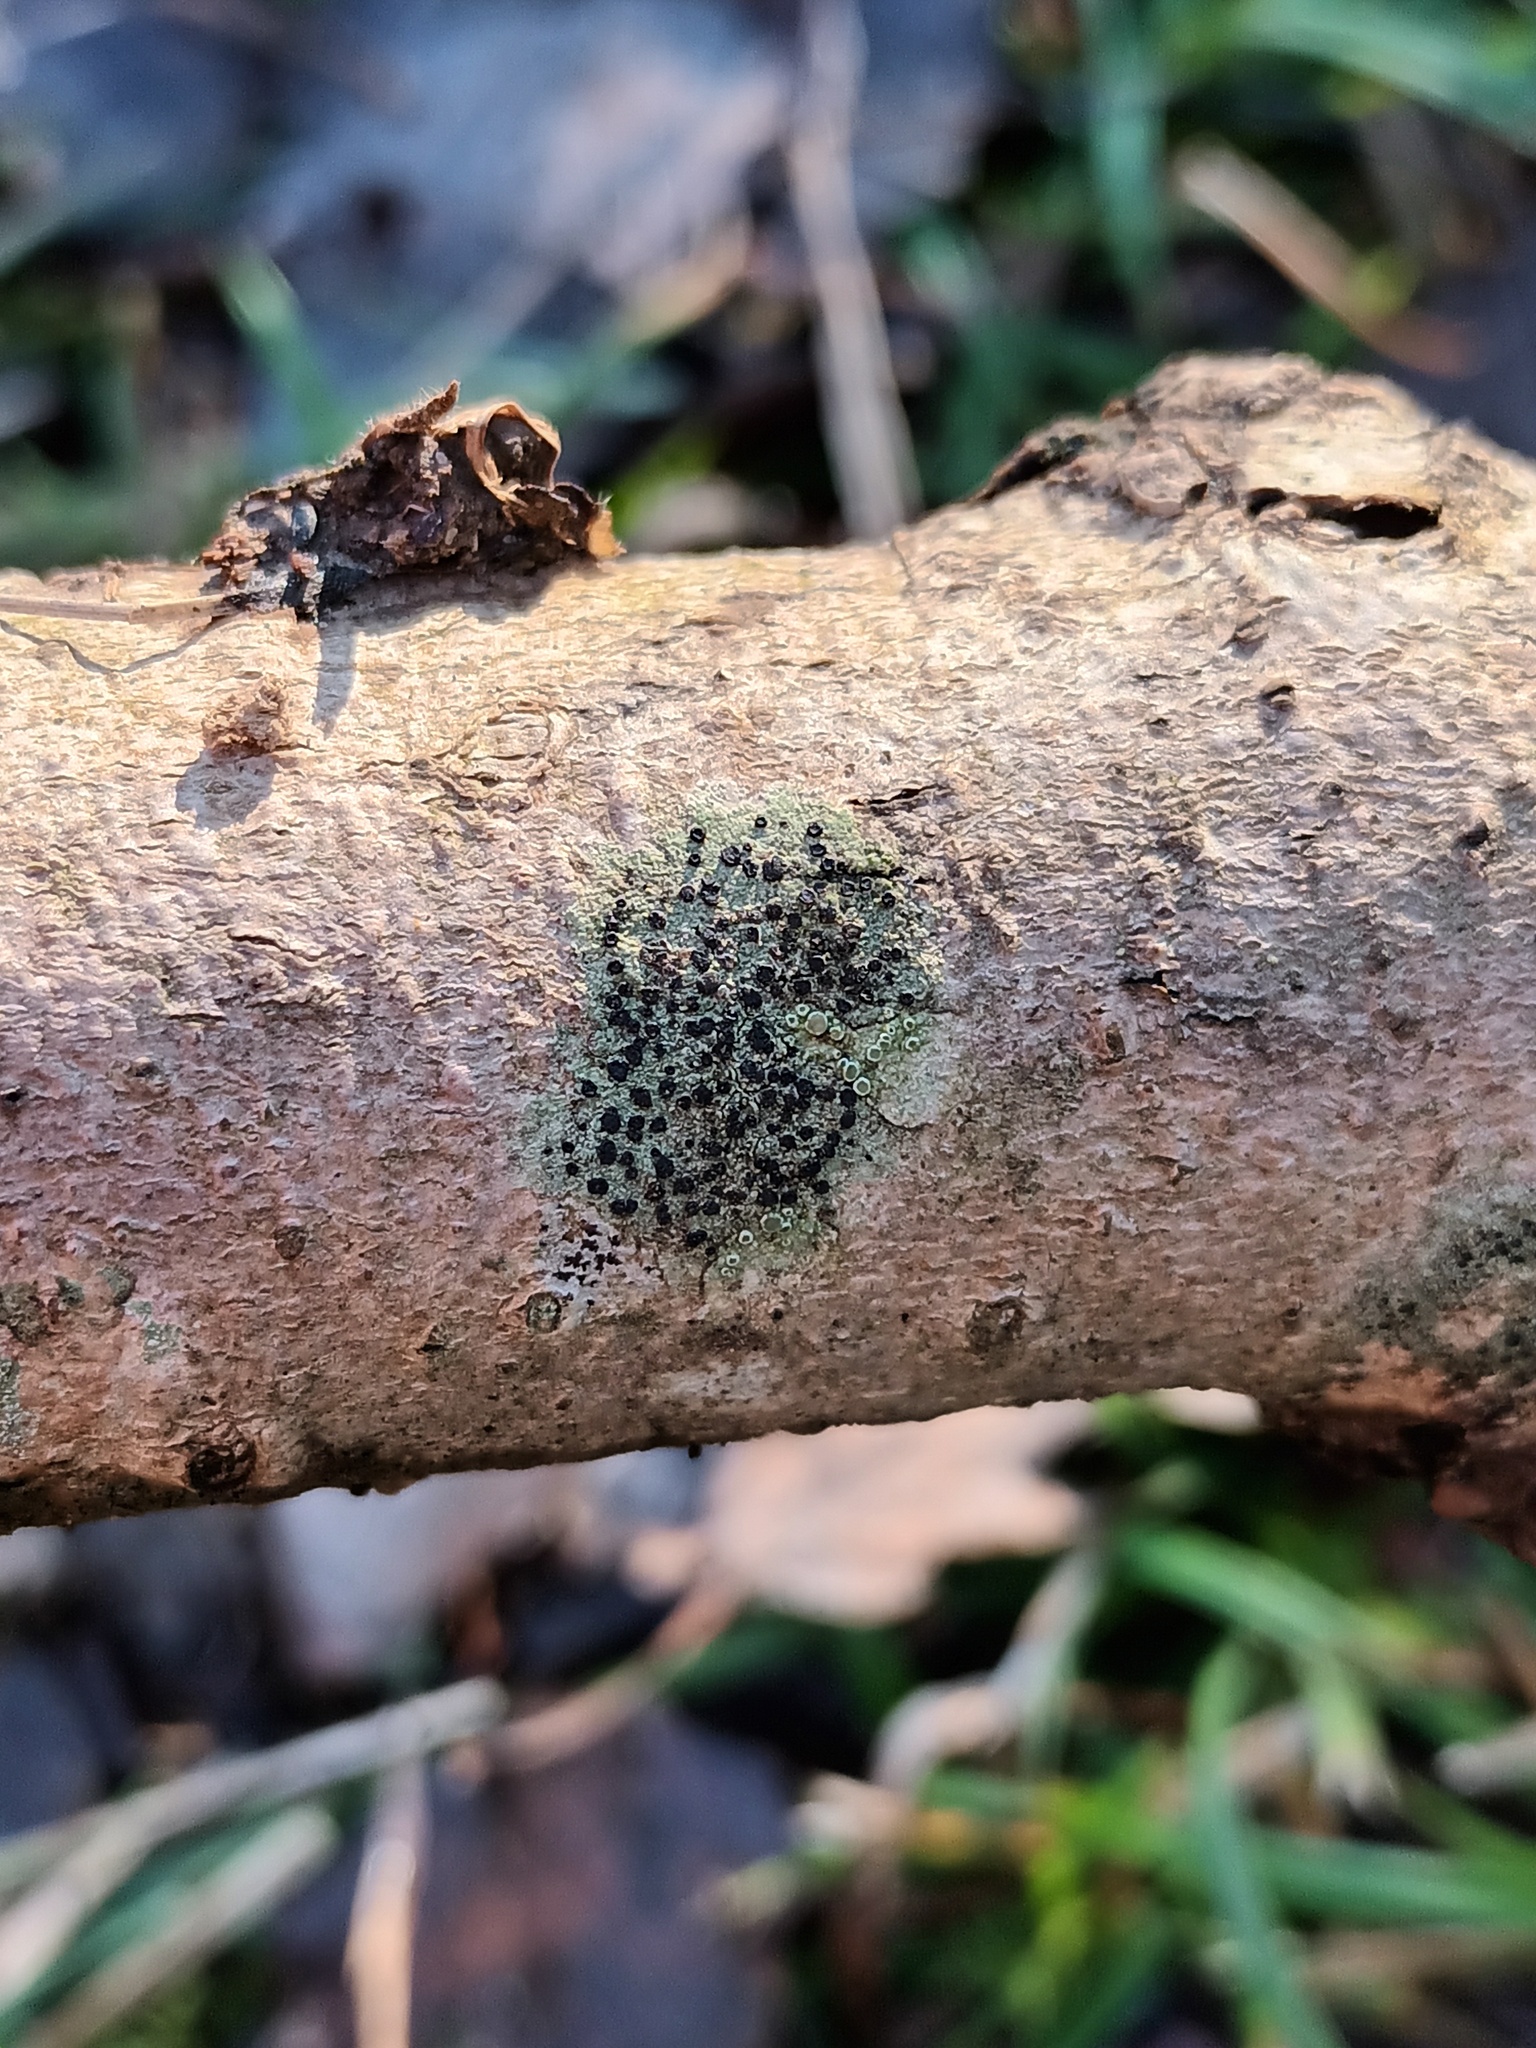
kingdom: Fungi
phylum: Ascomycota
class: Lecanoromycetes
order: Lecanorales
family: Lecanoraceae
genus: Lecidella
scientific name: Lecidella elaeochroma
